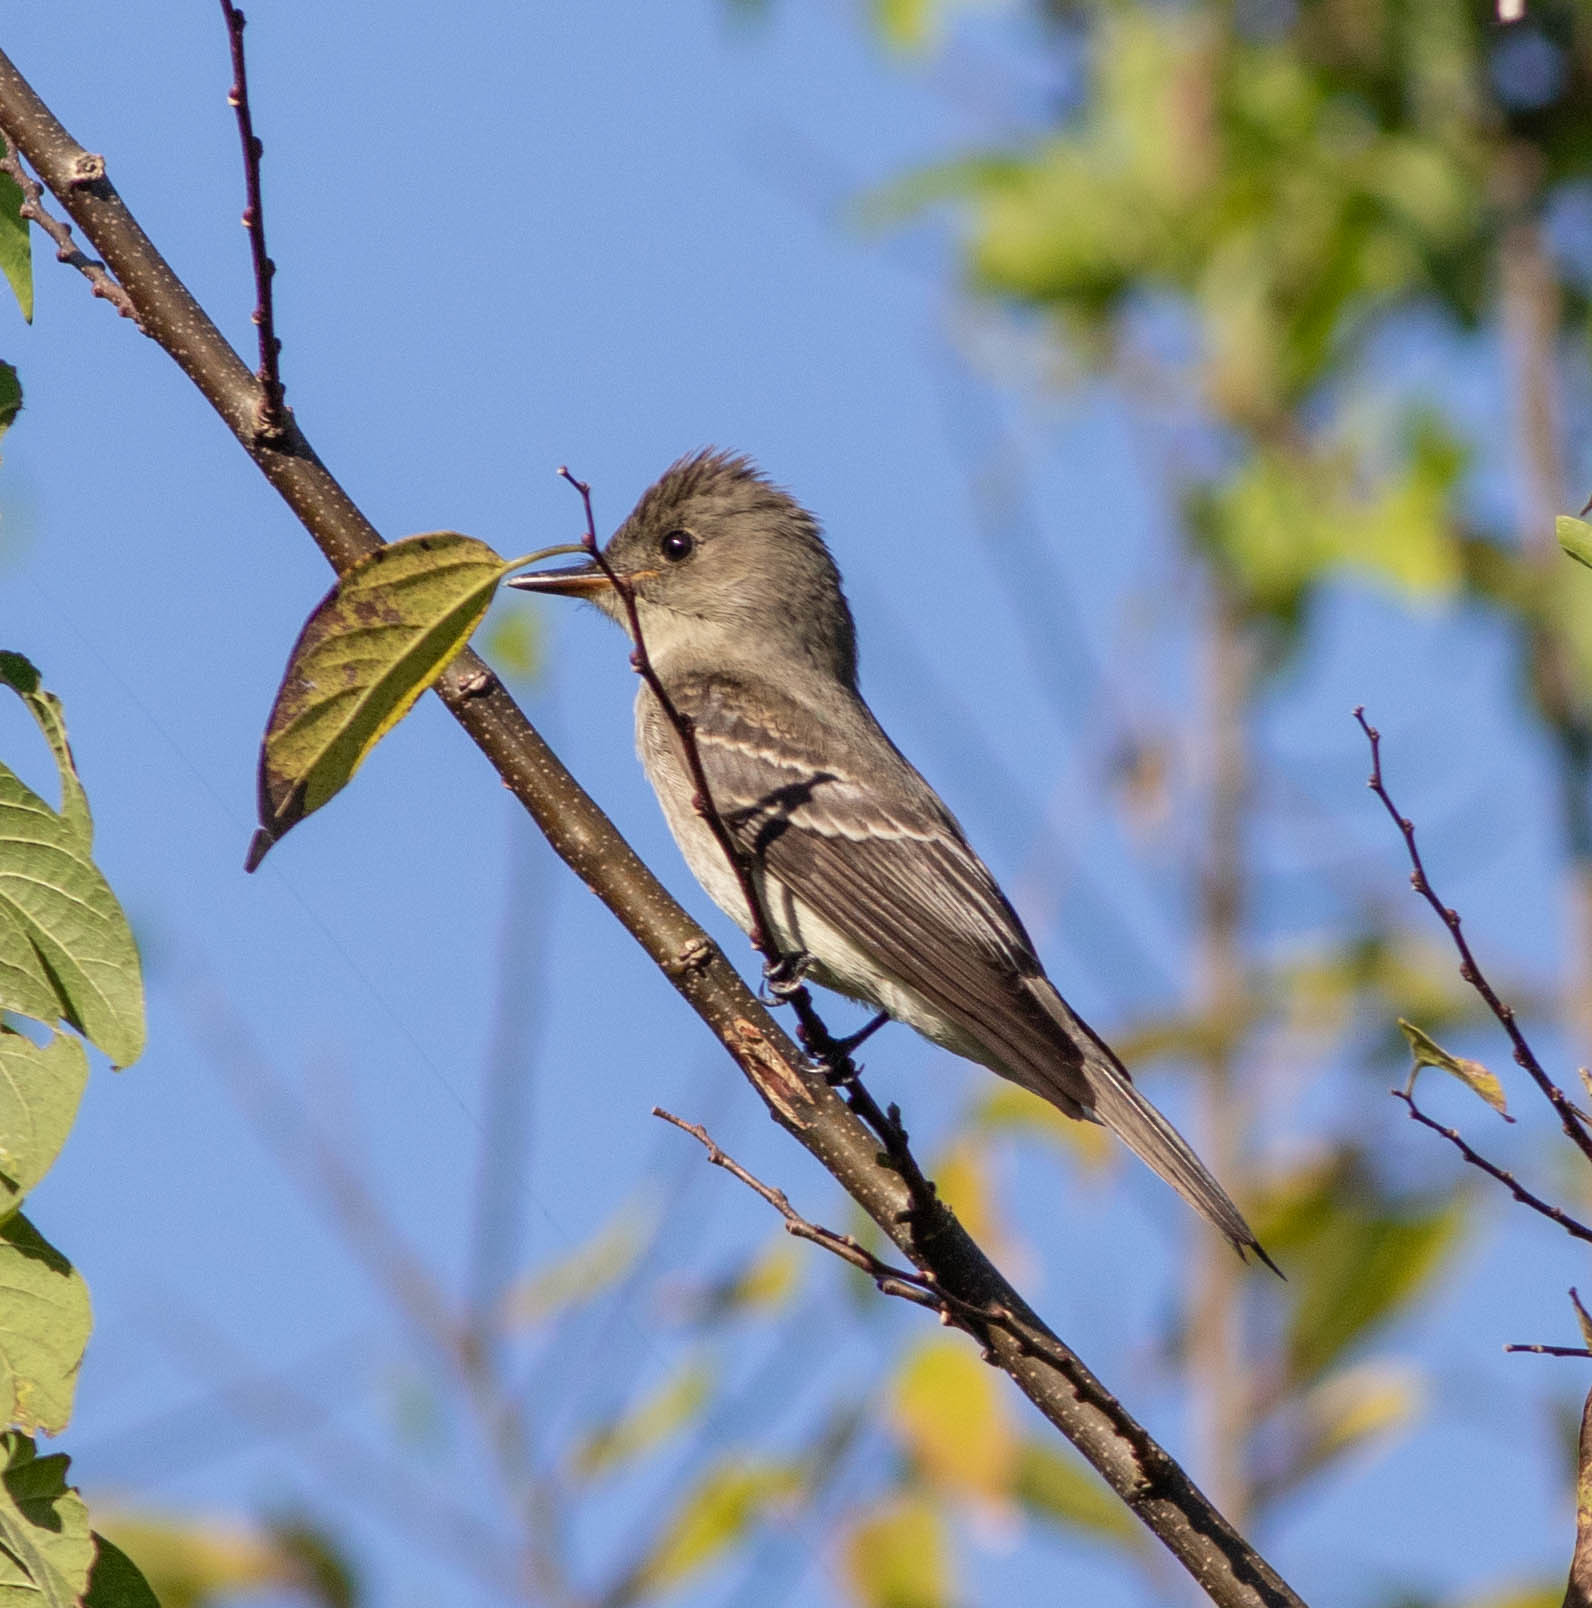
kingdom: Animalia
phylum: Chordata
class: Aves
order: Passeriformes
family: Tyrannidae
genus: Contopus
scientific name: Contopus virens
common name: Eastern wood-pewee
